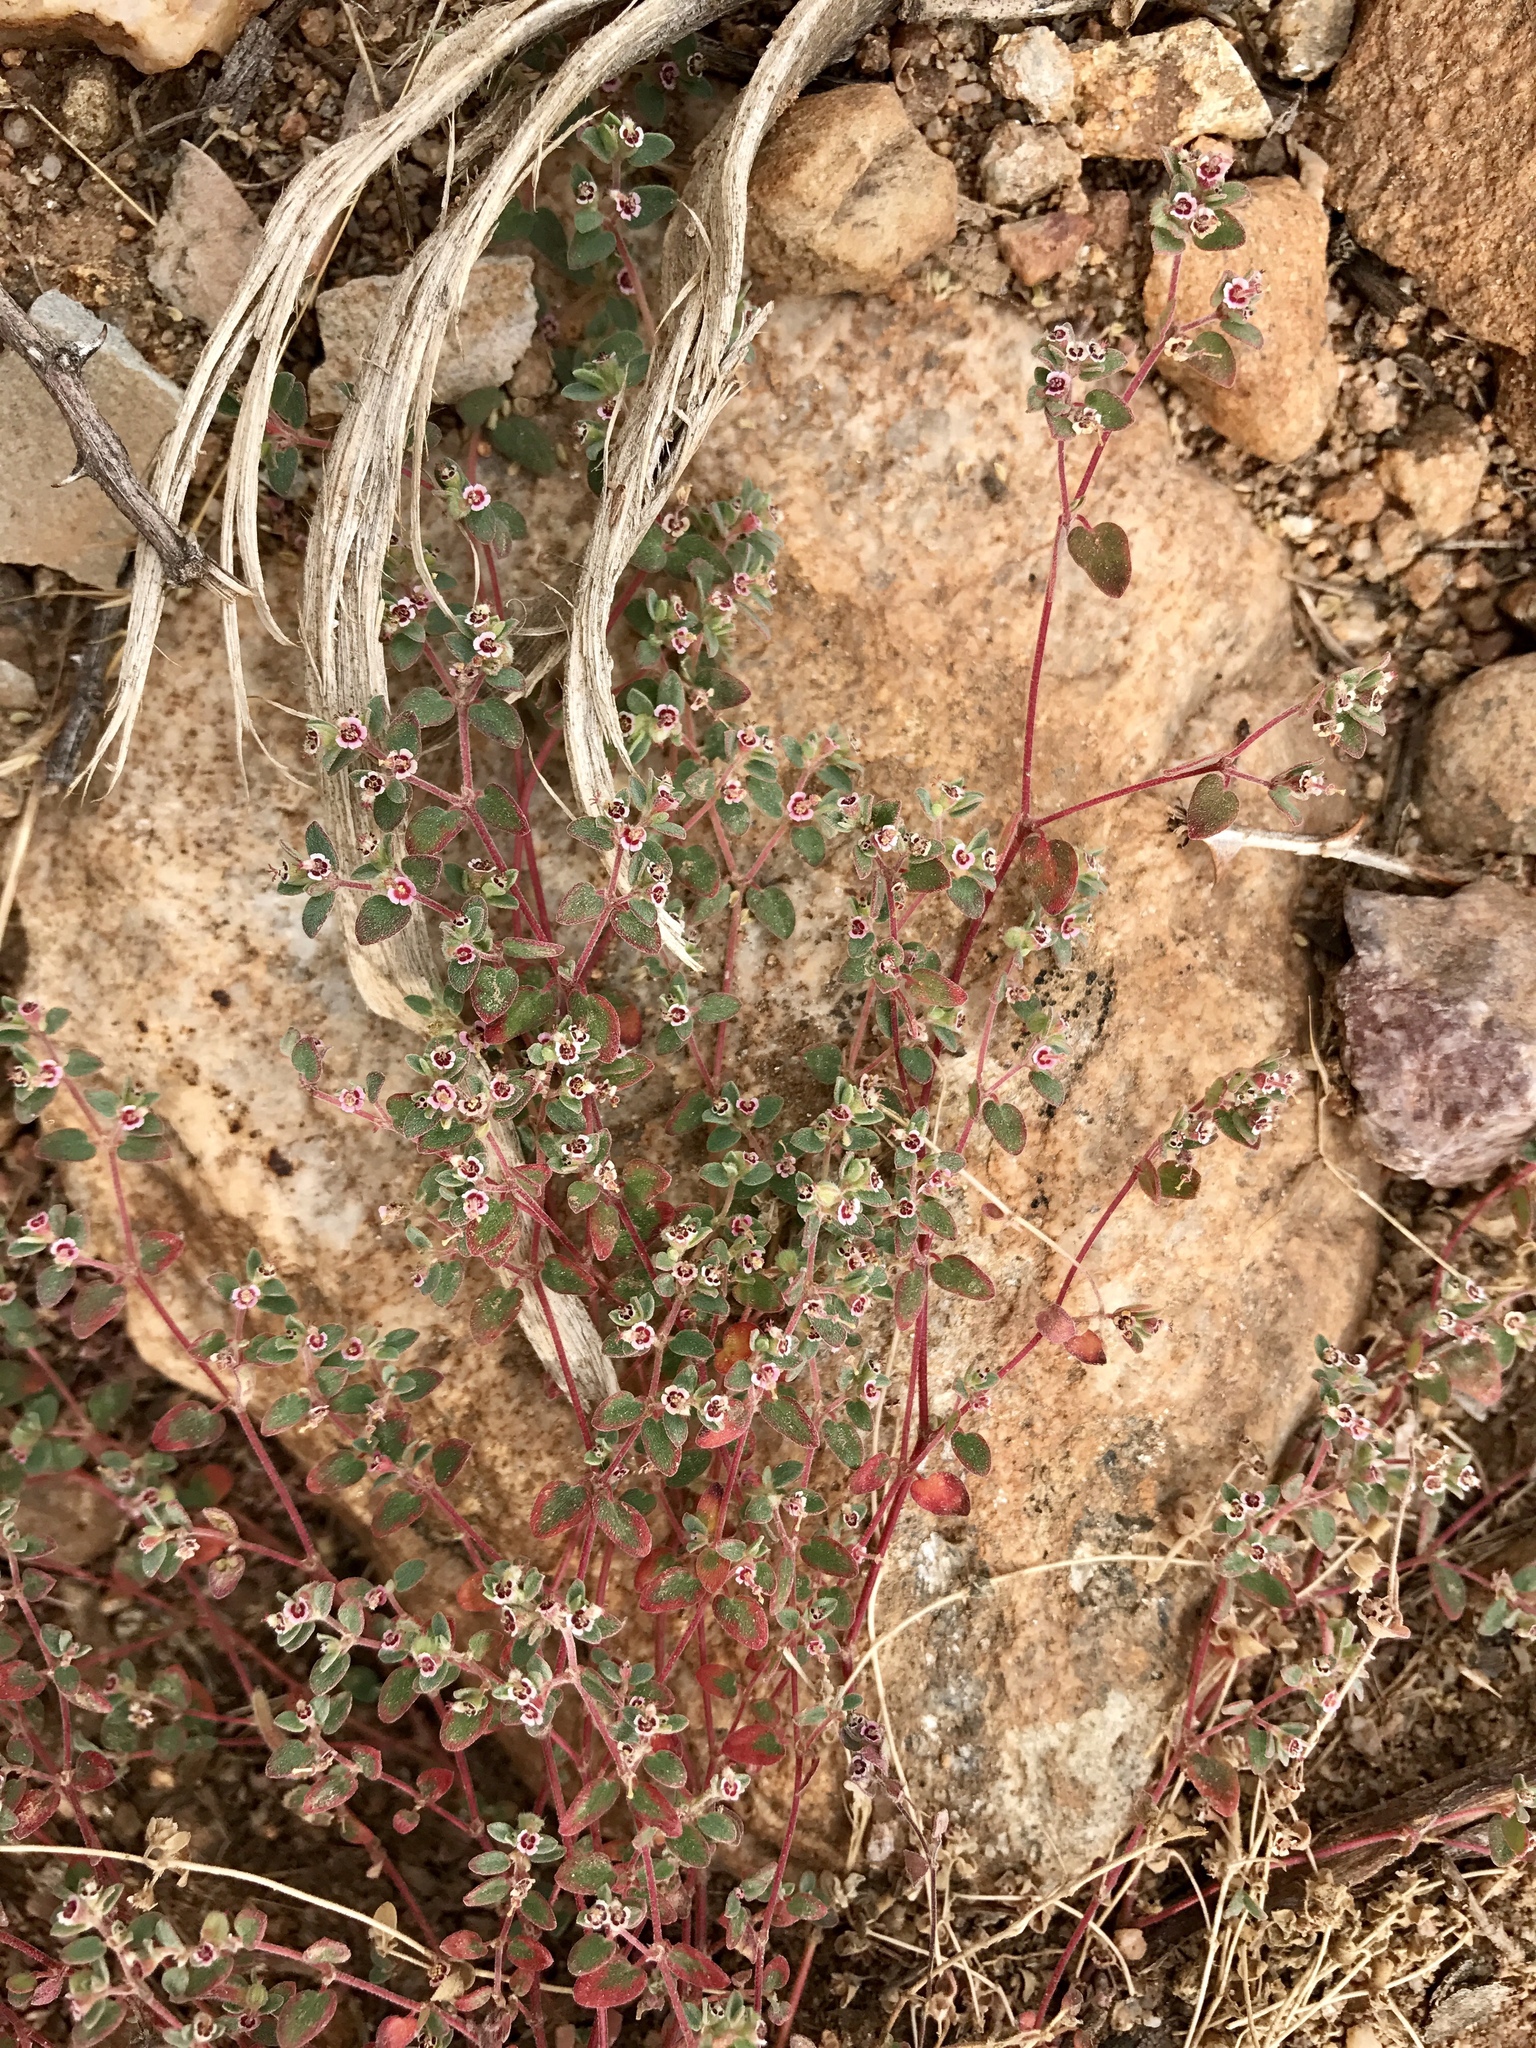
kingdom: Plantae
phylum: Tracheophyta
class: Magnoliopsida
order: Malpighiales
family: Euphorbiaceae
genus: Euphorbia
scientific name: Euphorbia melanadenia
